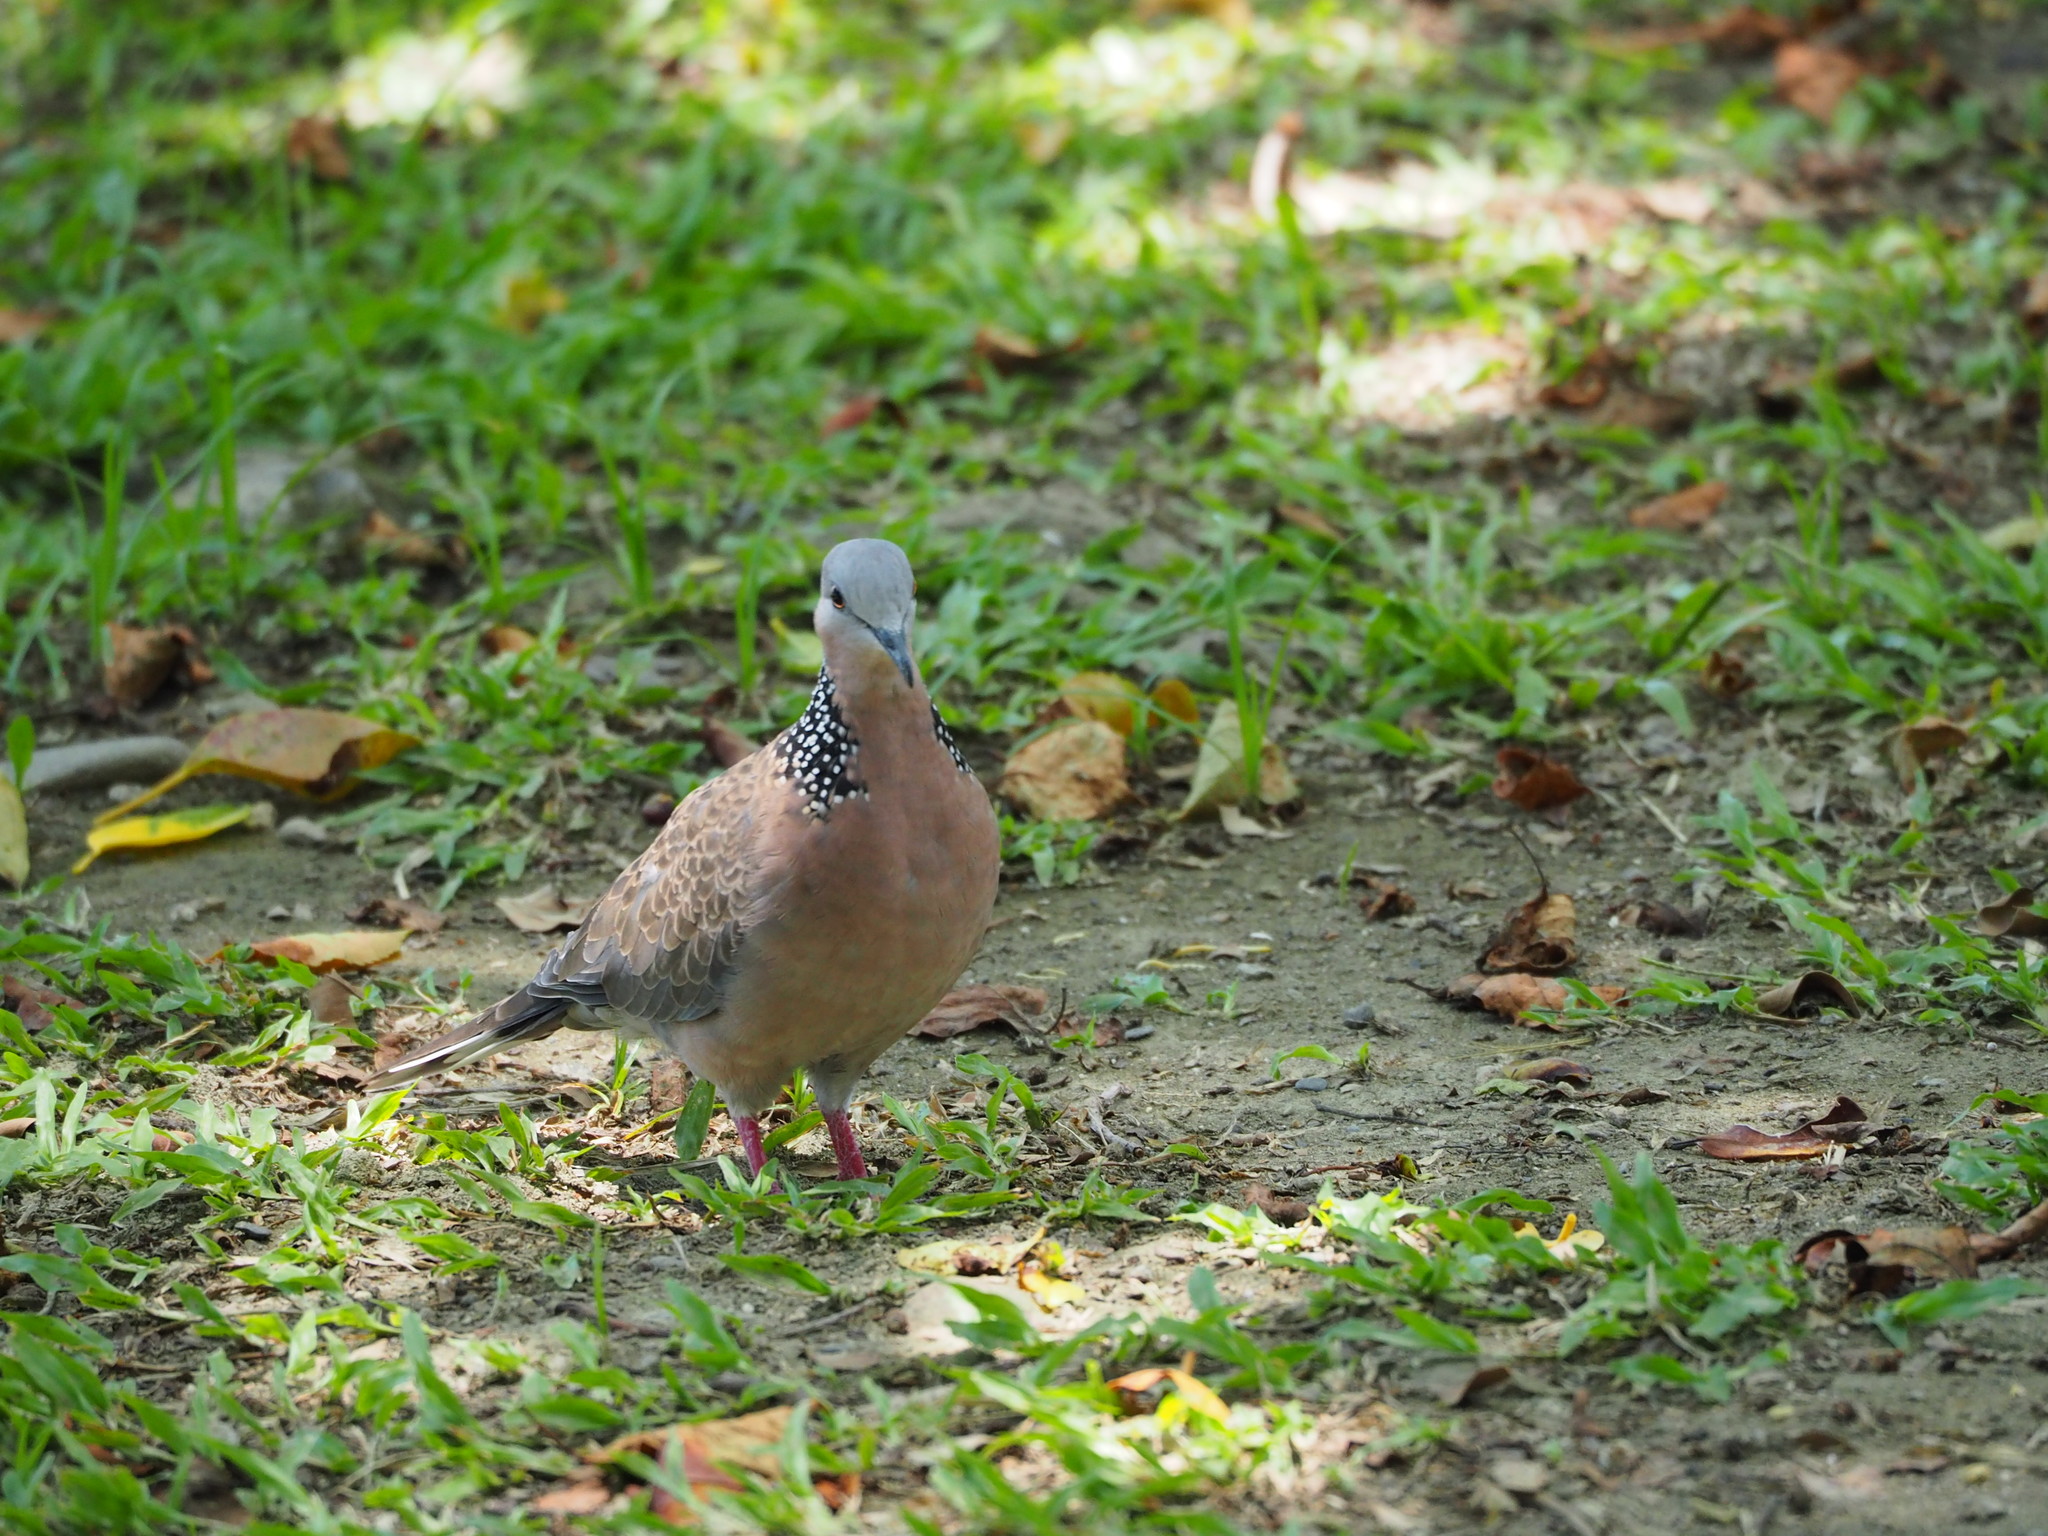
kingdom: Animalia
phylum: Chordata
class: Aves
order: Columbiformes
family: Columbidae
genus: Spilopelia
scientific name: Spilopelia chinensis
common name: Spotted dove
